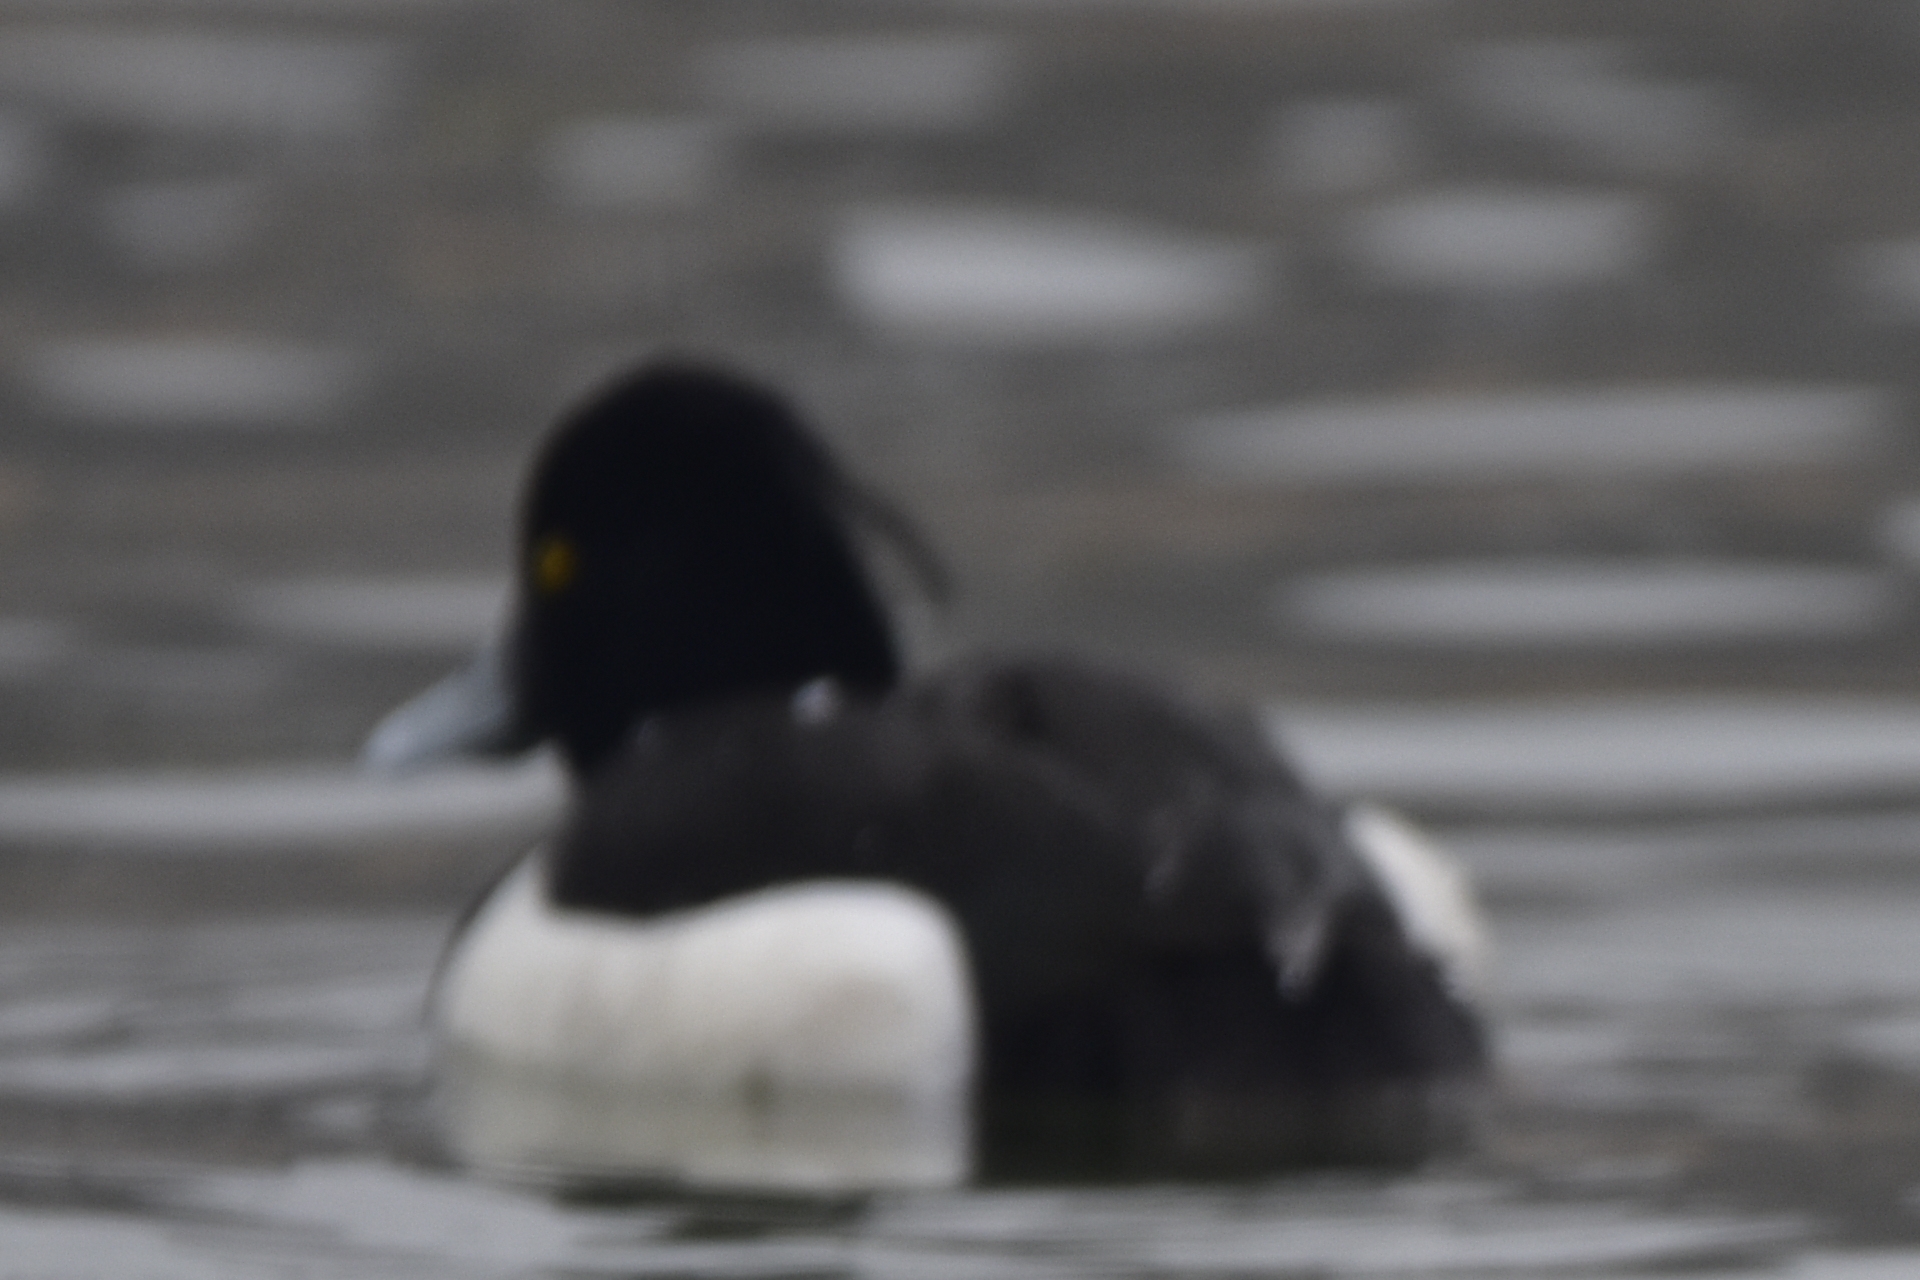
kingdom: Animalia
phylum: Chordata
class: Aves
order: Anseriformes
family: Anatidae
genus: Aythya
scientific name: Aythya fuligula
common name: Tufted duck
